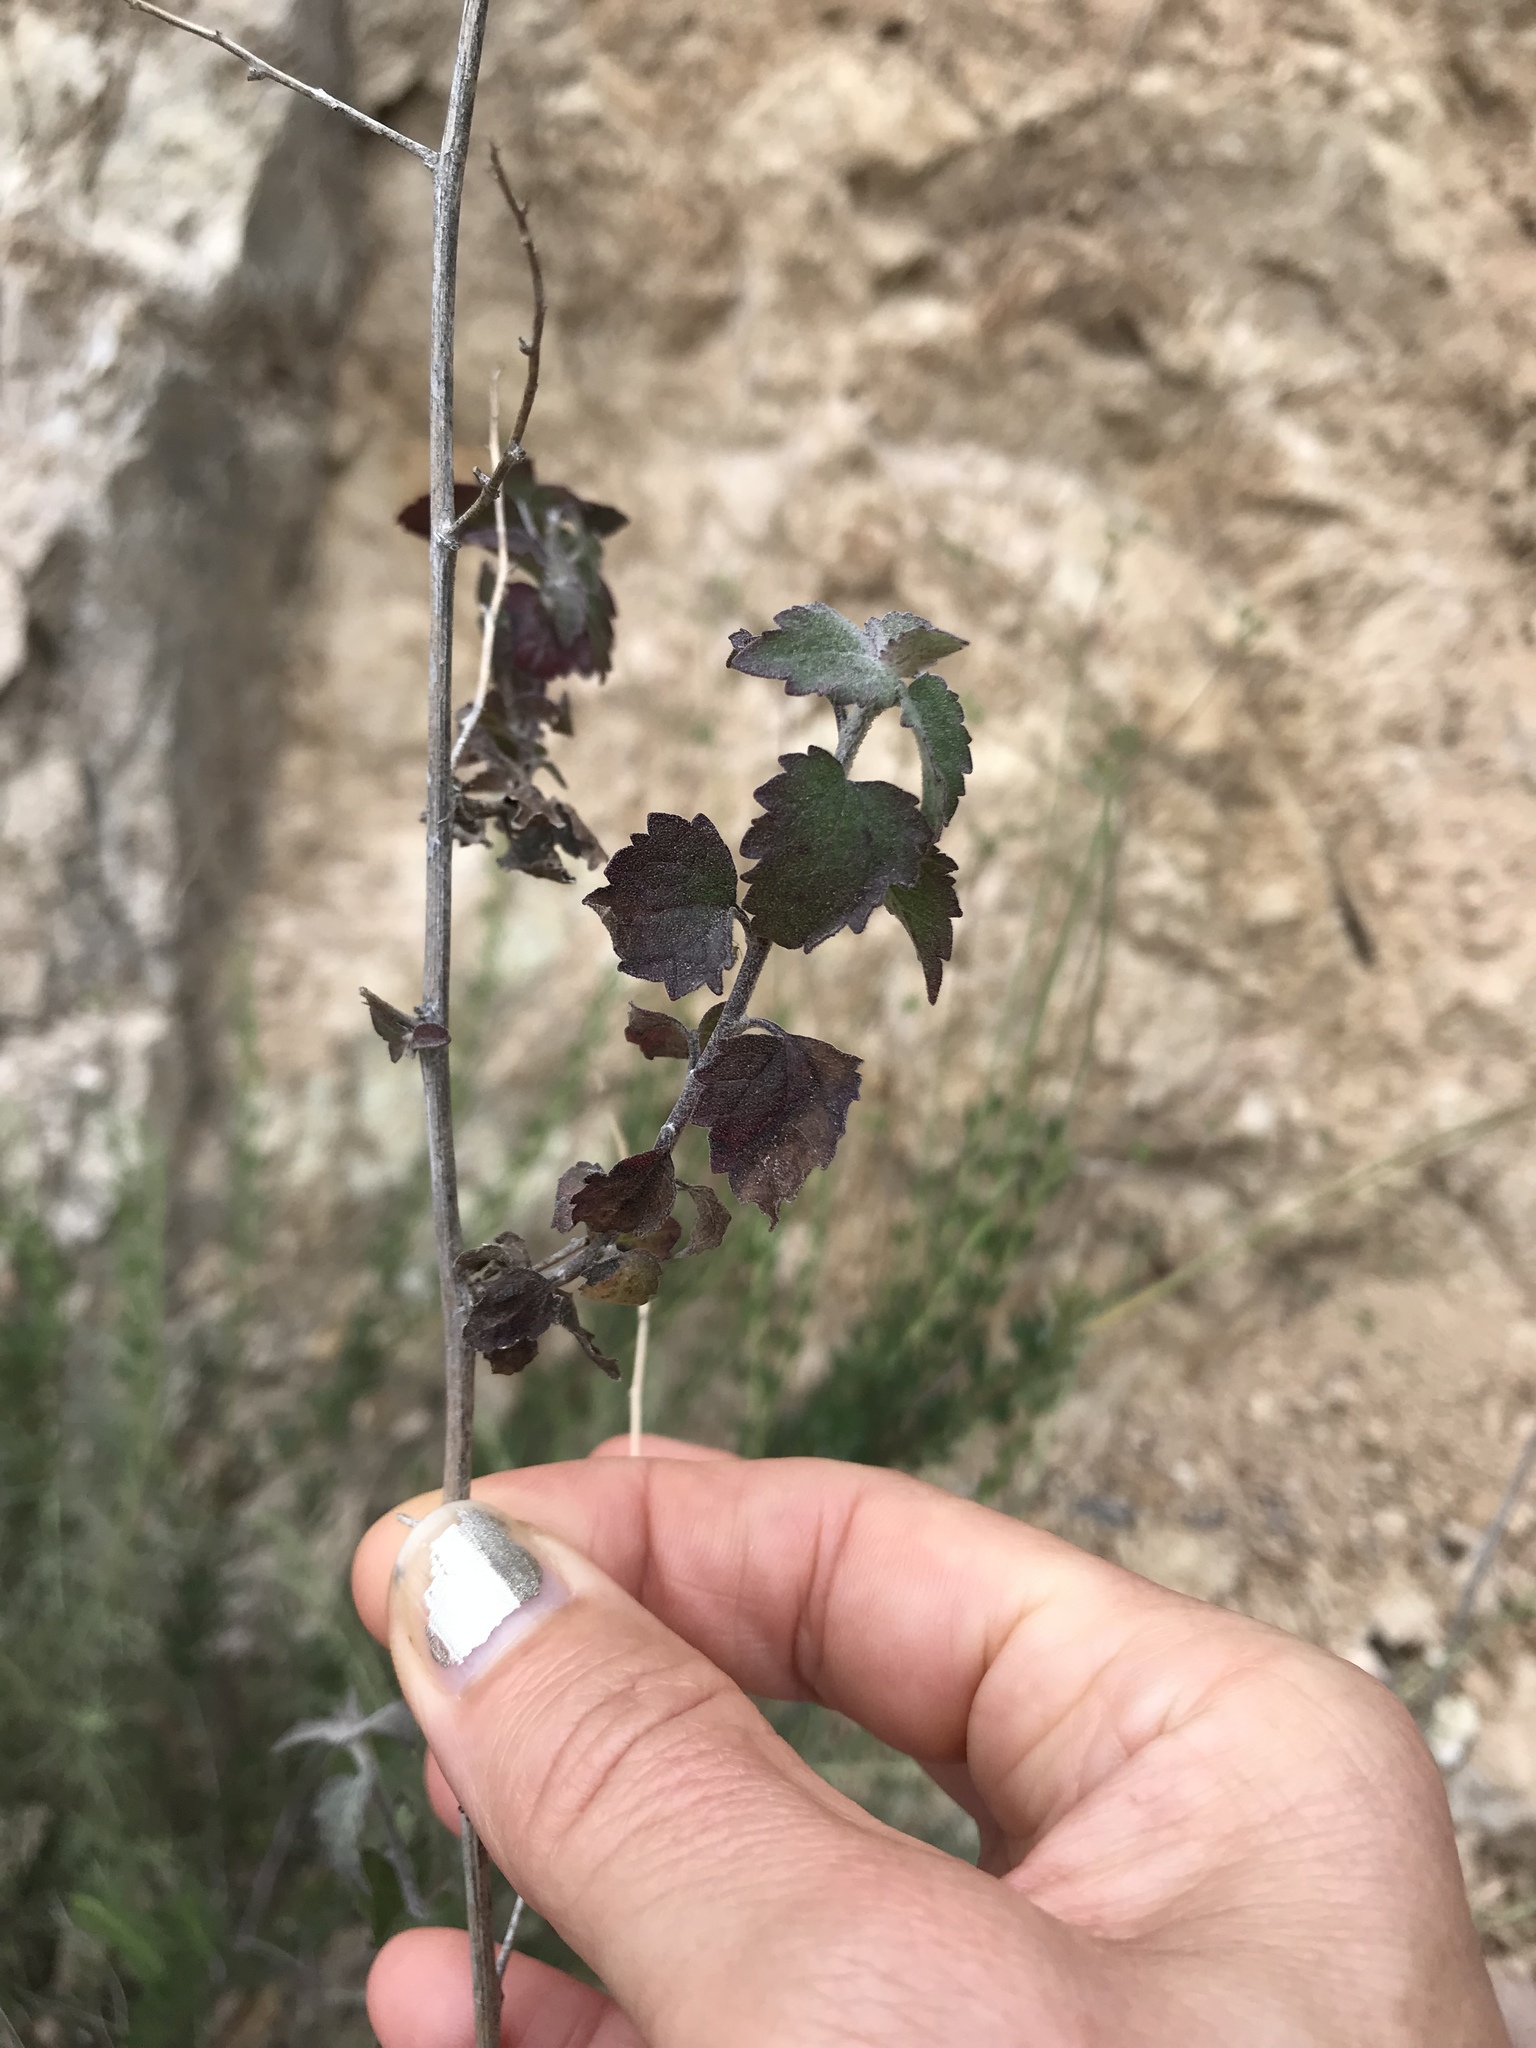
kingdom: Plantae
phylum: Tracheophyta
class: Magnoliopsida
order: Asterales
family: Asteraceae
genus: Brickellia
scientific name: Brickellia californica
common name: California brickellbush
